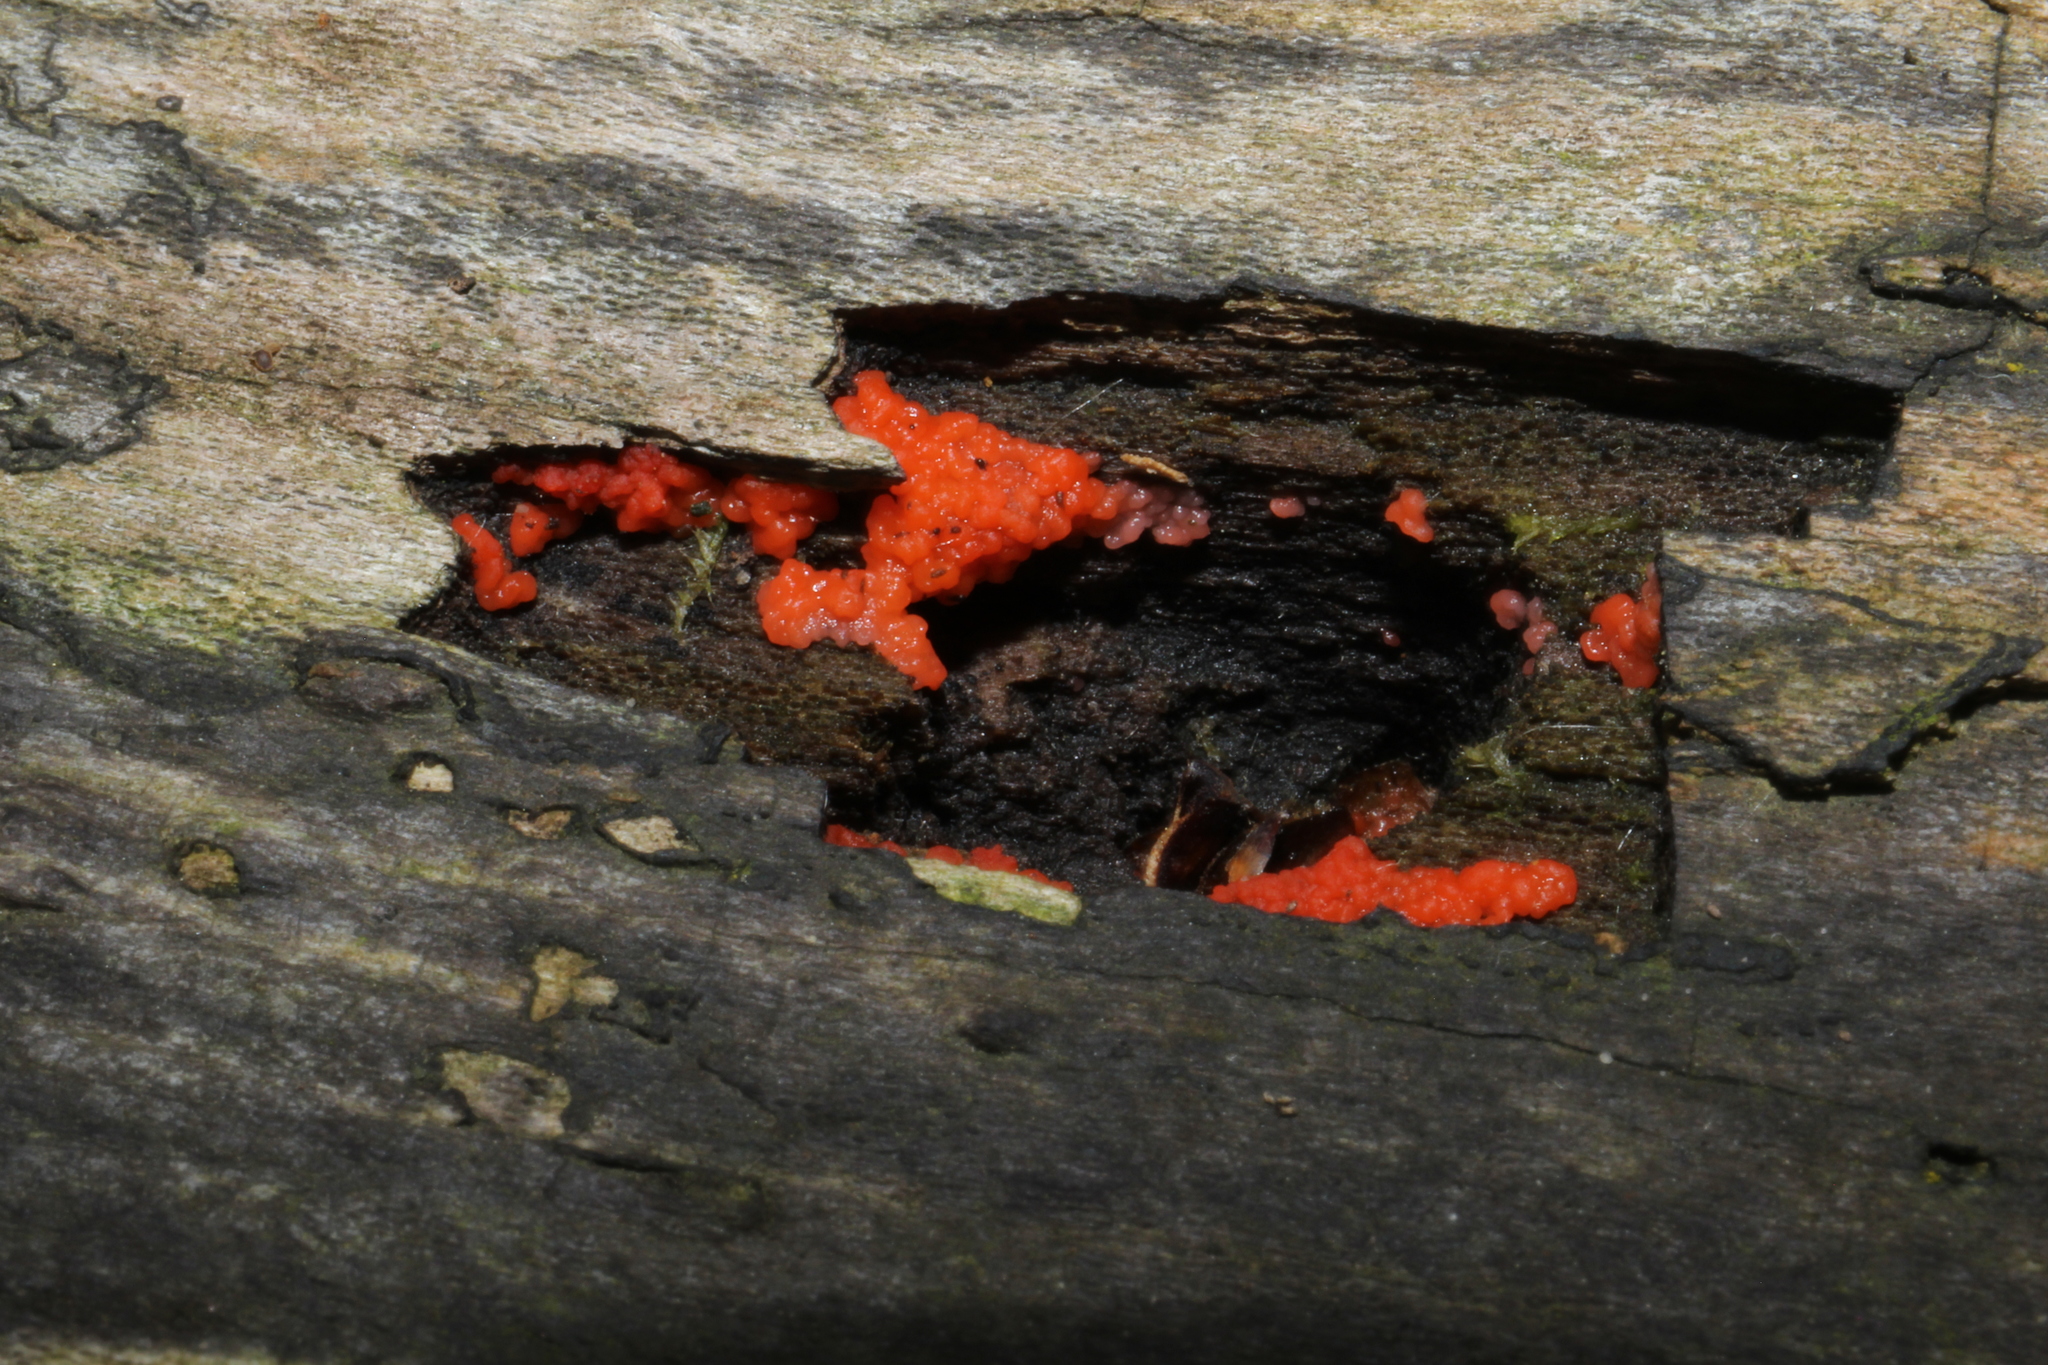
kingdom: Fungi
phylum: Basidiomycota
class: Agaricomycetes
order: Cantharellales
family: Tulasnellaceae
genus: Tulasnella
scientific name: Tulasnella aurantiaca
